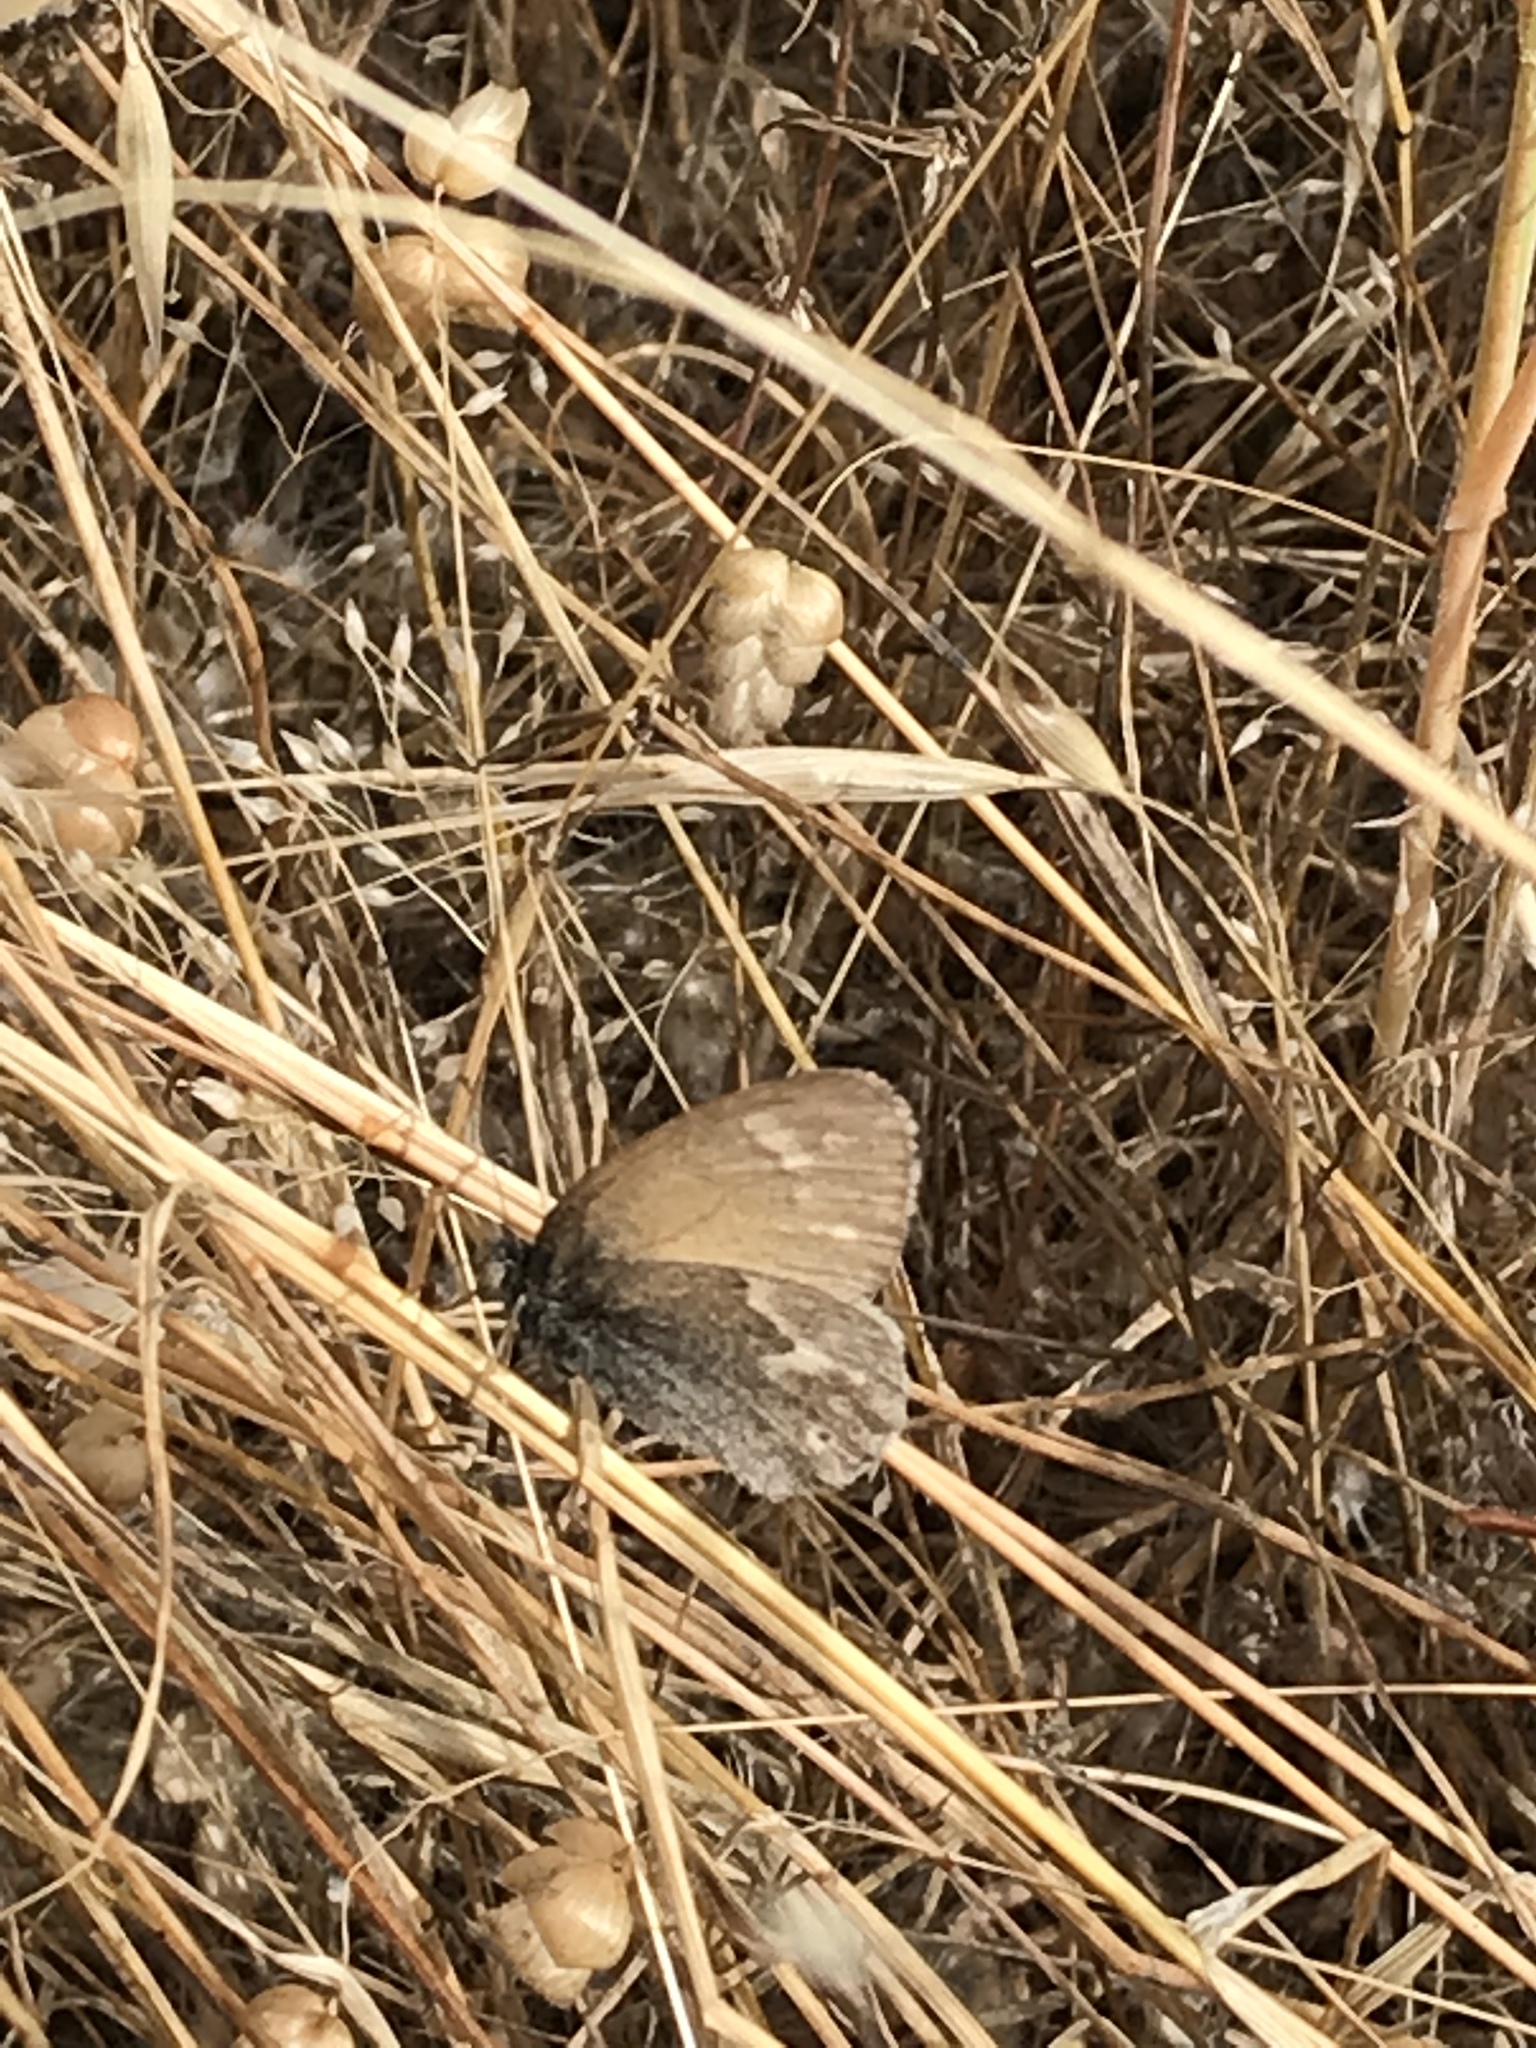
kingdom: Animalia
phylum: Arthropoda
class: Insecta
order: Lepidoptera
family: Nymphalidae
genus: Coenonympha
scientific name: Coenonympha california
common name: Common ringlet
